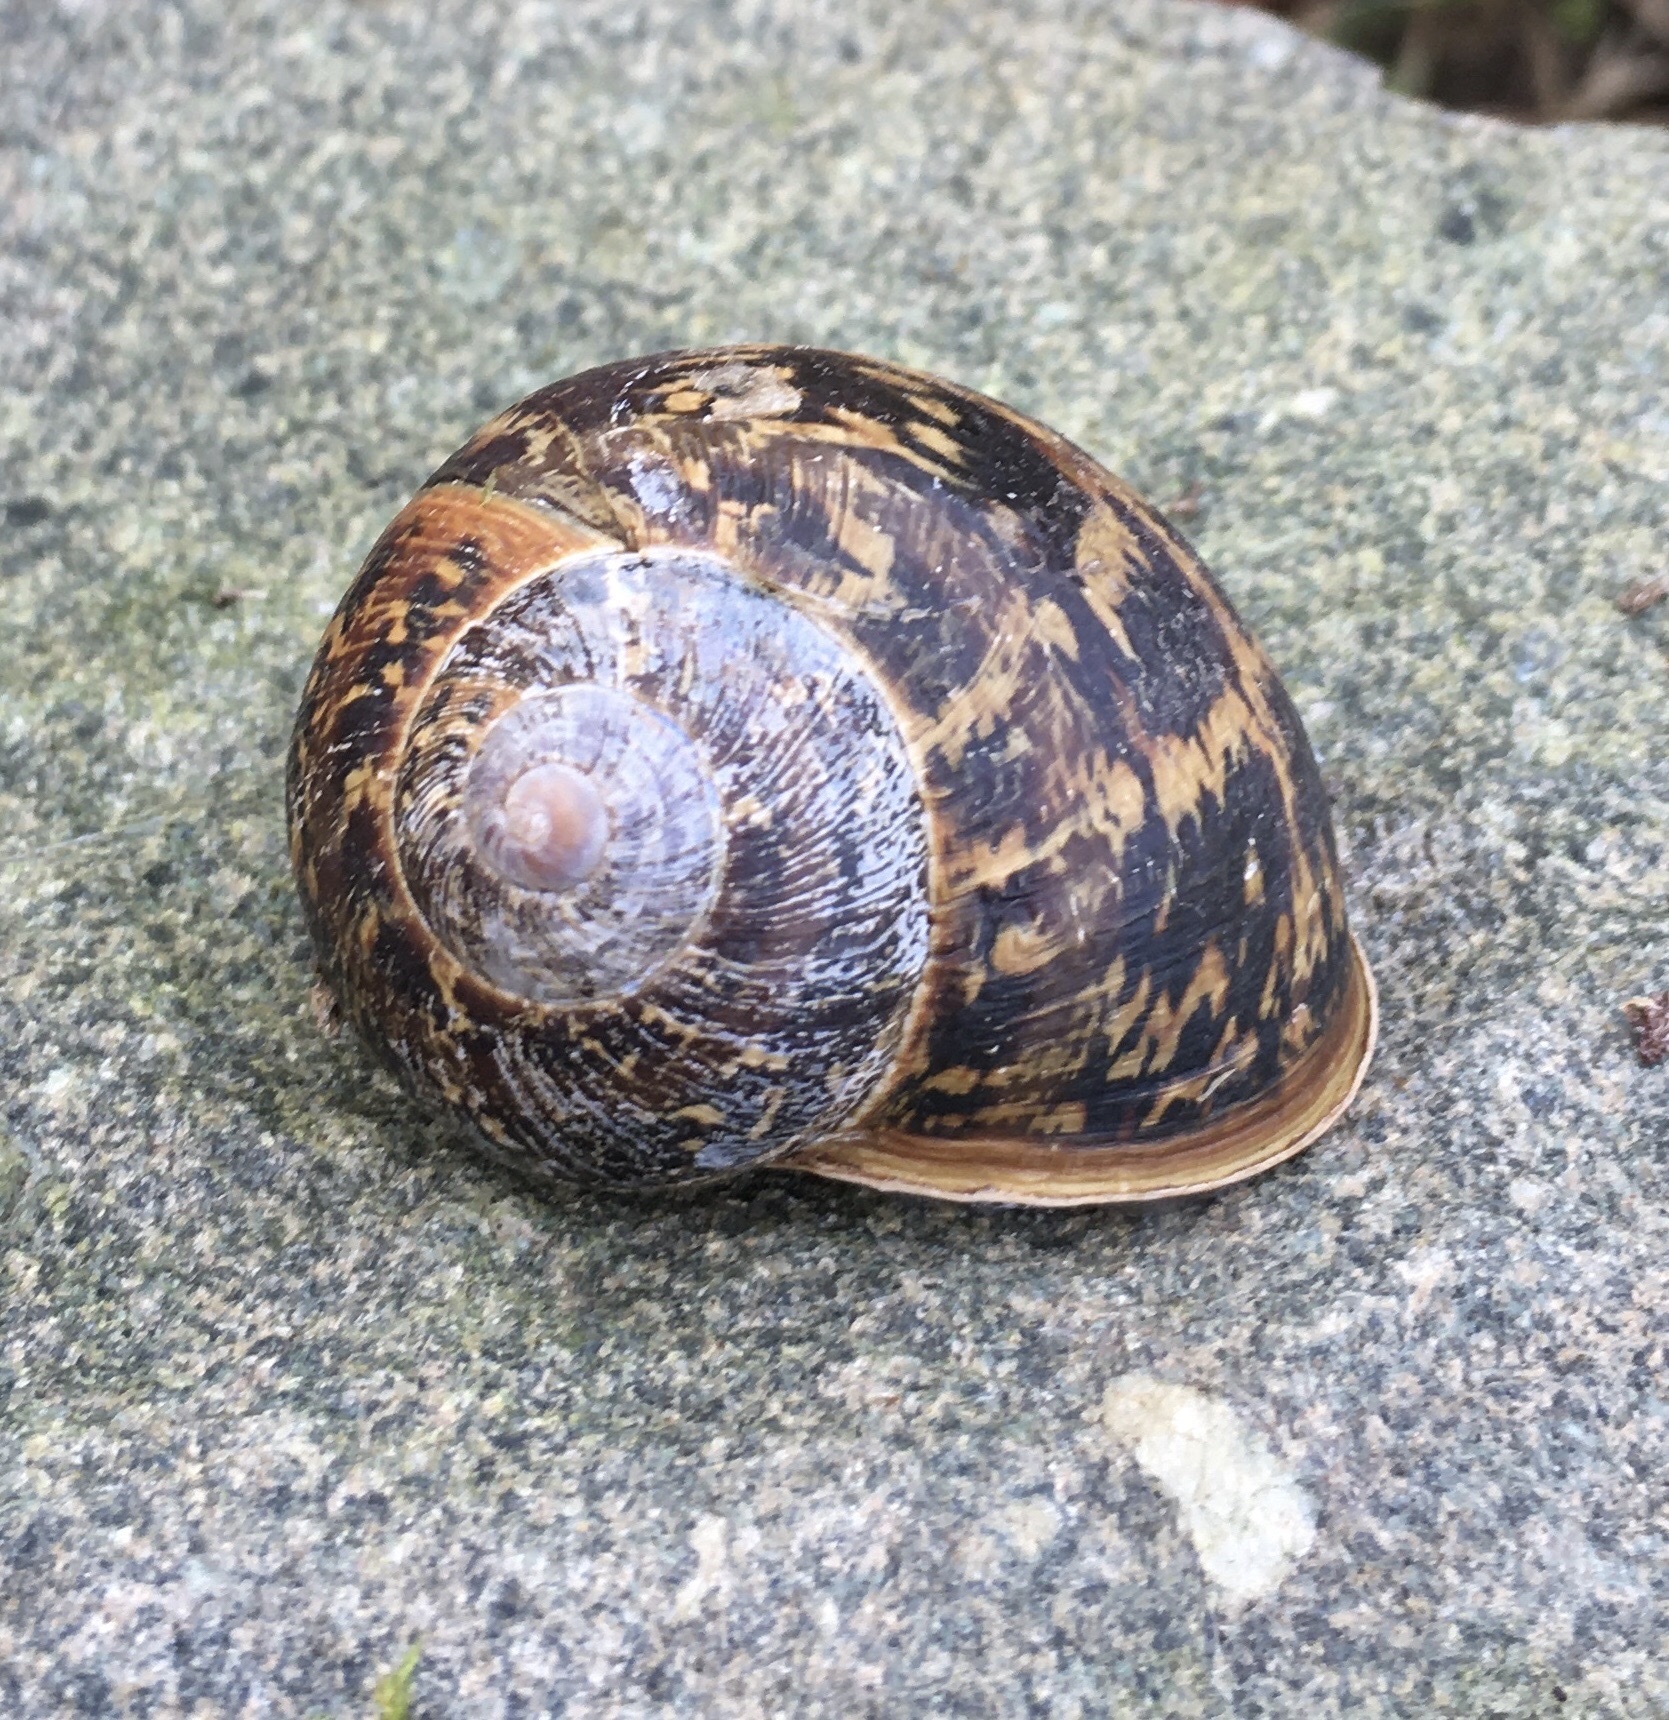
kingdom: Animalia
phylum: Mollusca
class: Gastropoda
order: Stylommatophora
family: Helicidae
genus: Cornu
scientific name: Cornu aspersum
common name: Brown garden snail
